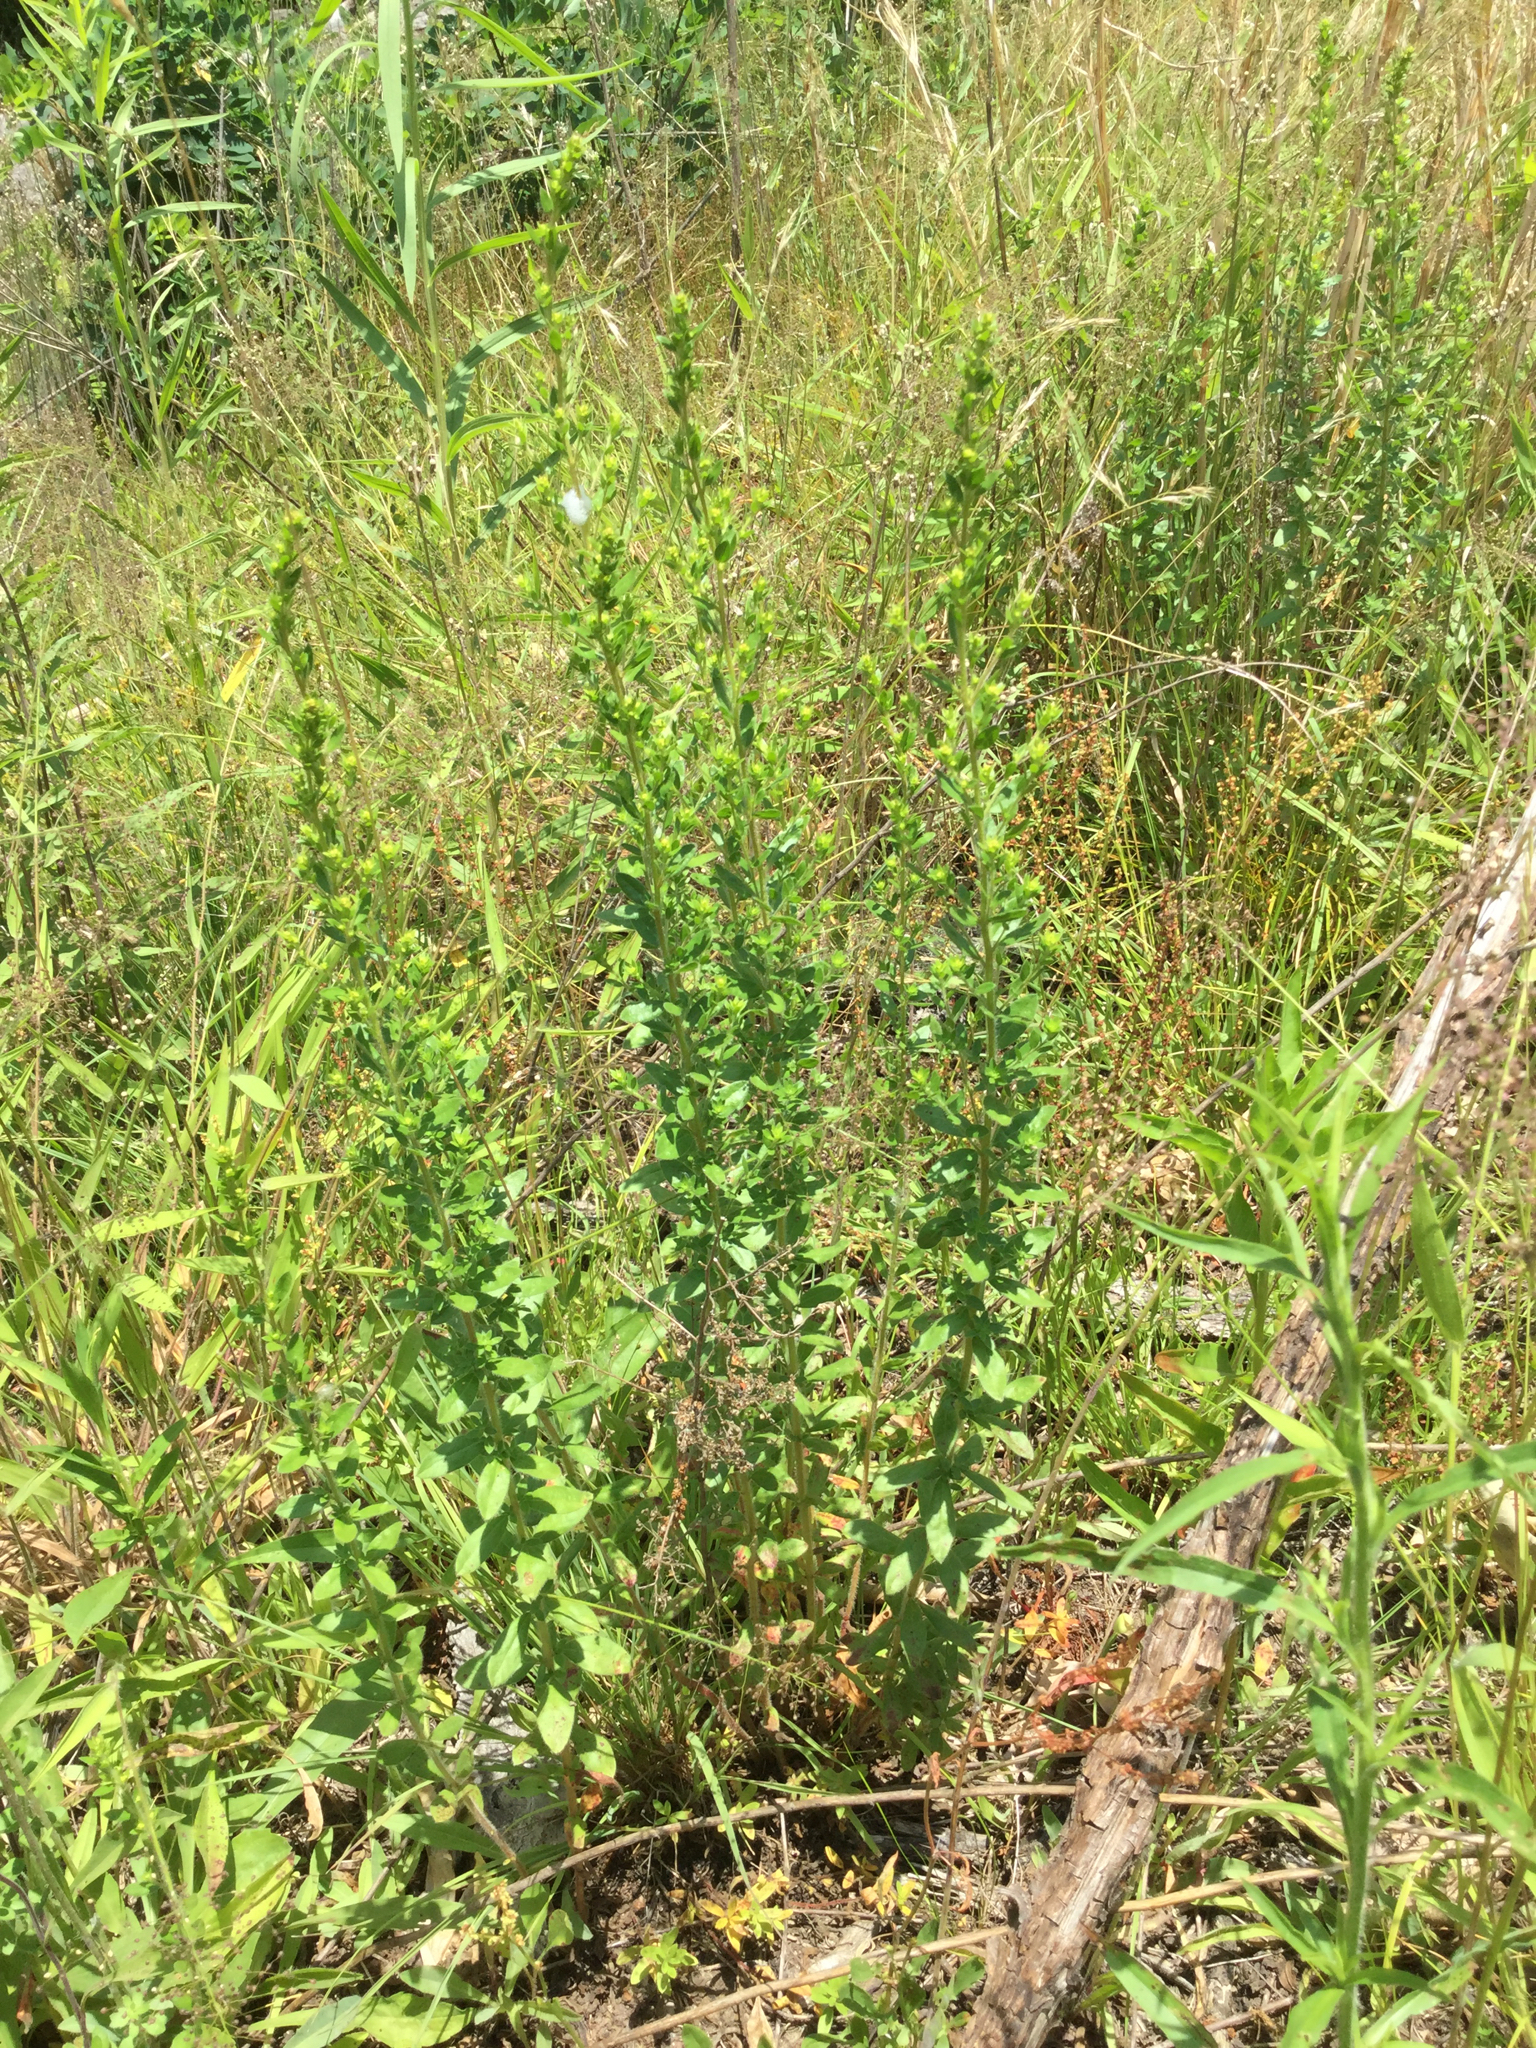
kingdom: Plantae
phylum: Tracheophyta
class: Magnoliopsida
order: Malvales
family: Cistaceae
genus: Lechea
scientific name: Lechea mucronata
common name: Hairy pinweed
